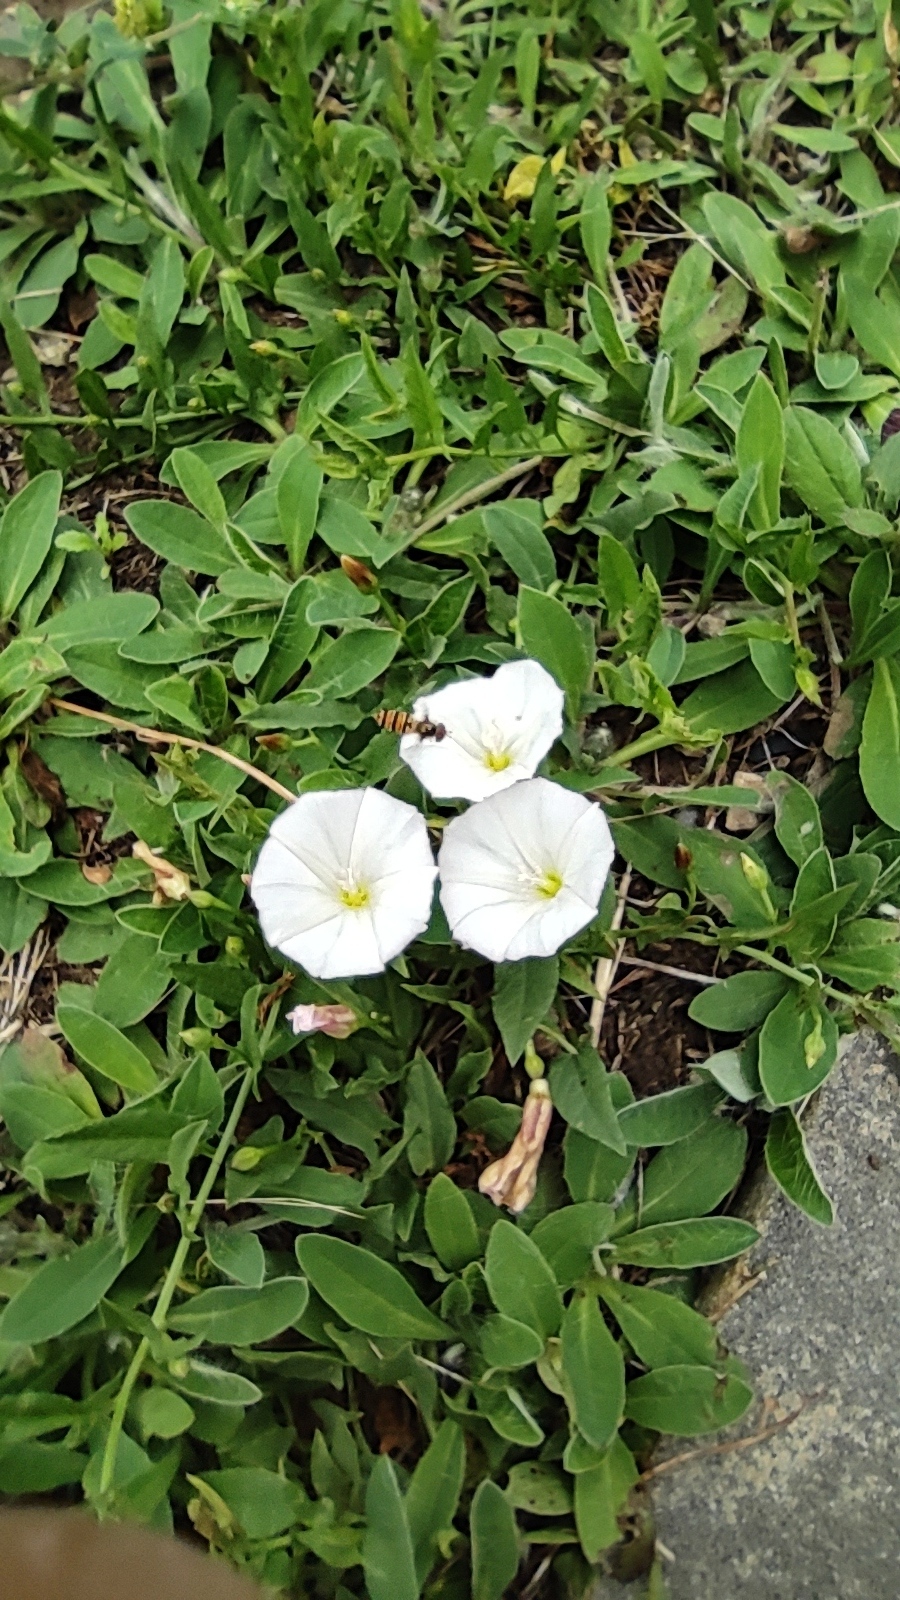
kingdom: Plantae
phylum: Tracheophyta
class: Magnoliopsida
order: Solanales
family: Convolvulaceae
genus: Convolvulus
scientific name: Convolvulus arvensis
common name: Field bindweed
